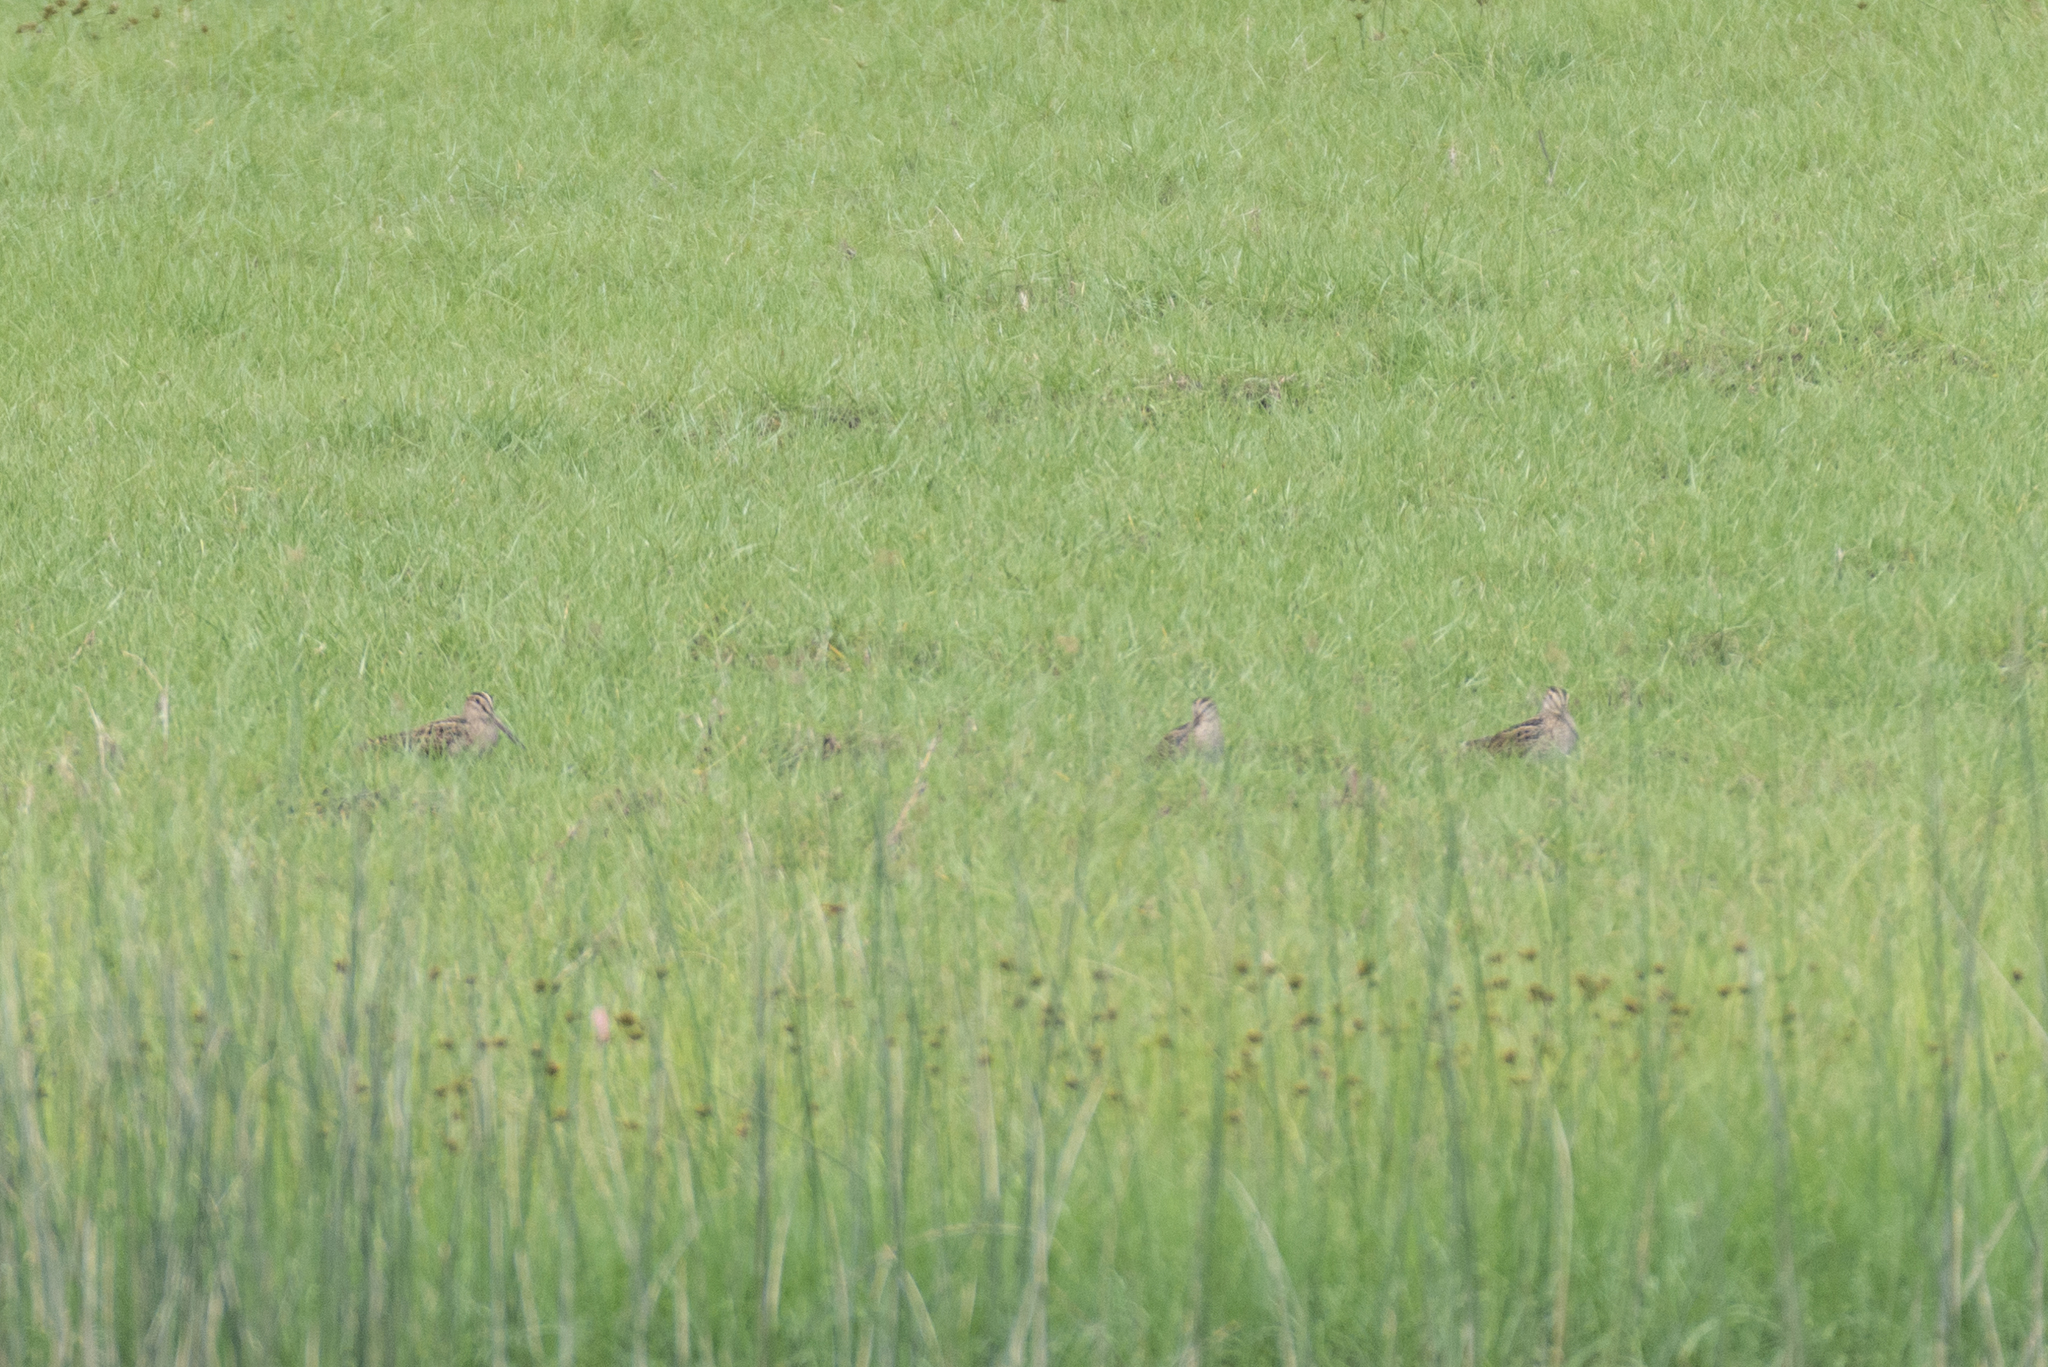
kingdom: Animalia
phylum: Chordata
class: Aves
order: Charadriiformes
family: Scolopacidae
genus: Gallinago
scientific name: Gallinago gallinago
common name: Common snipe
